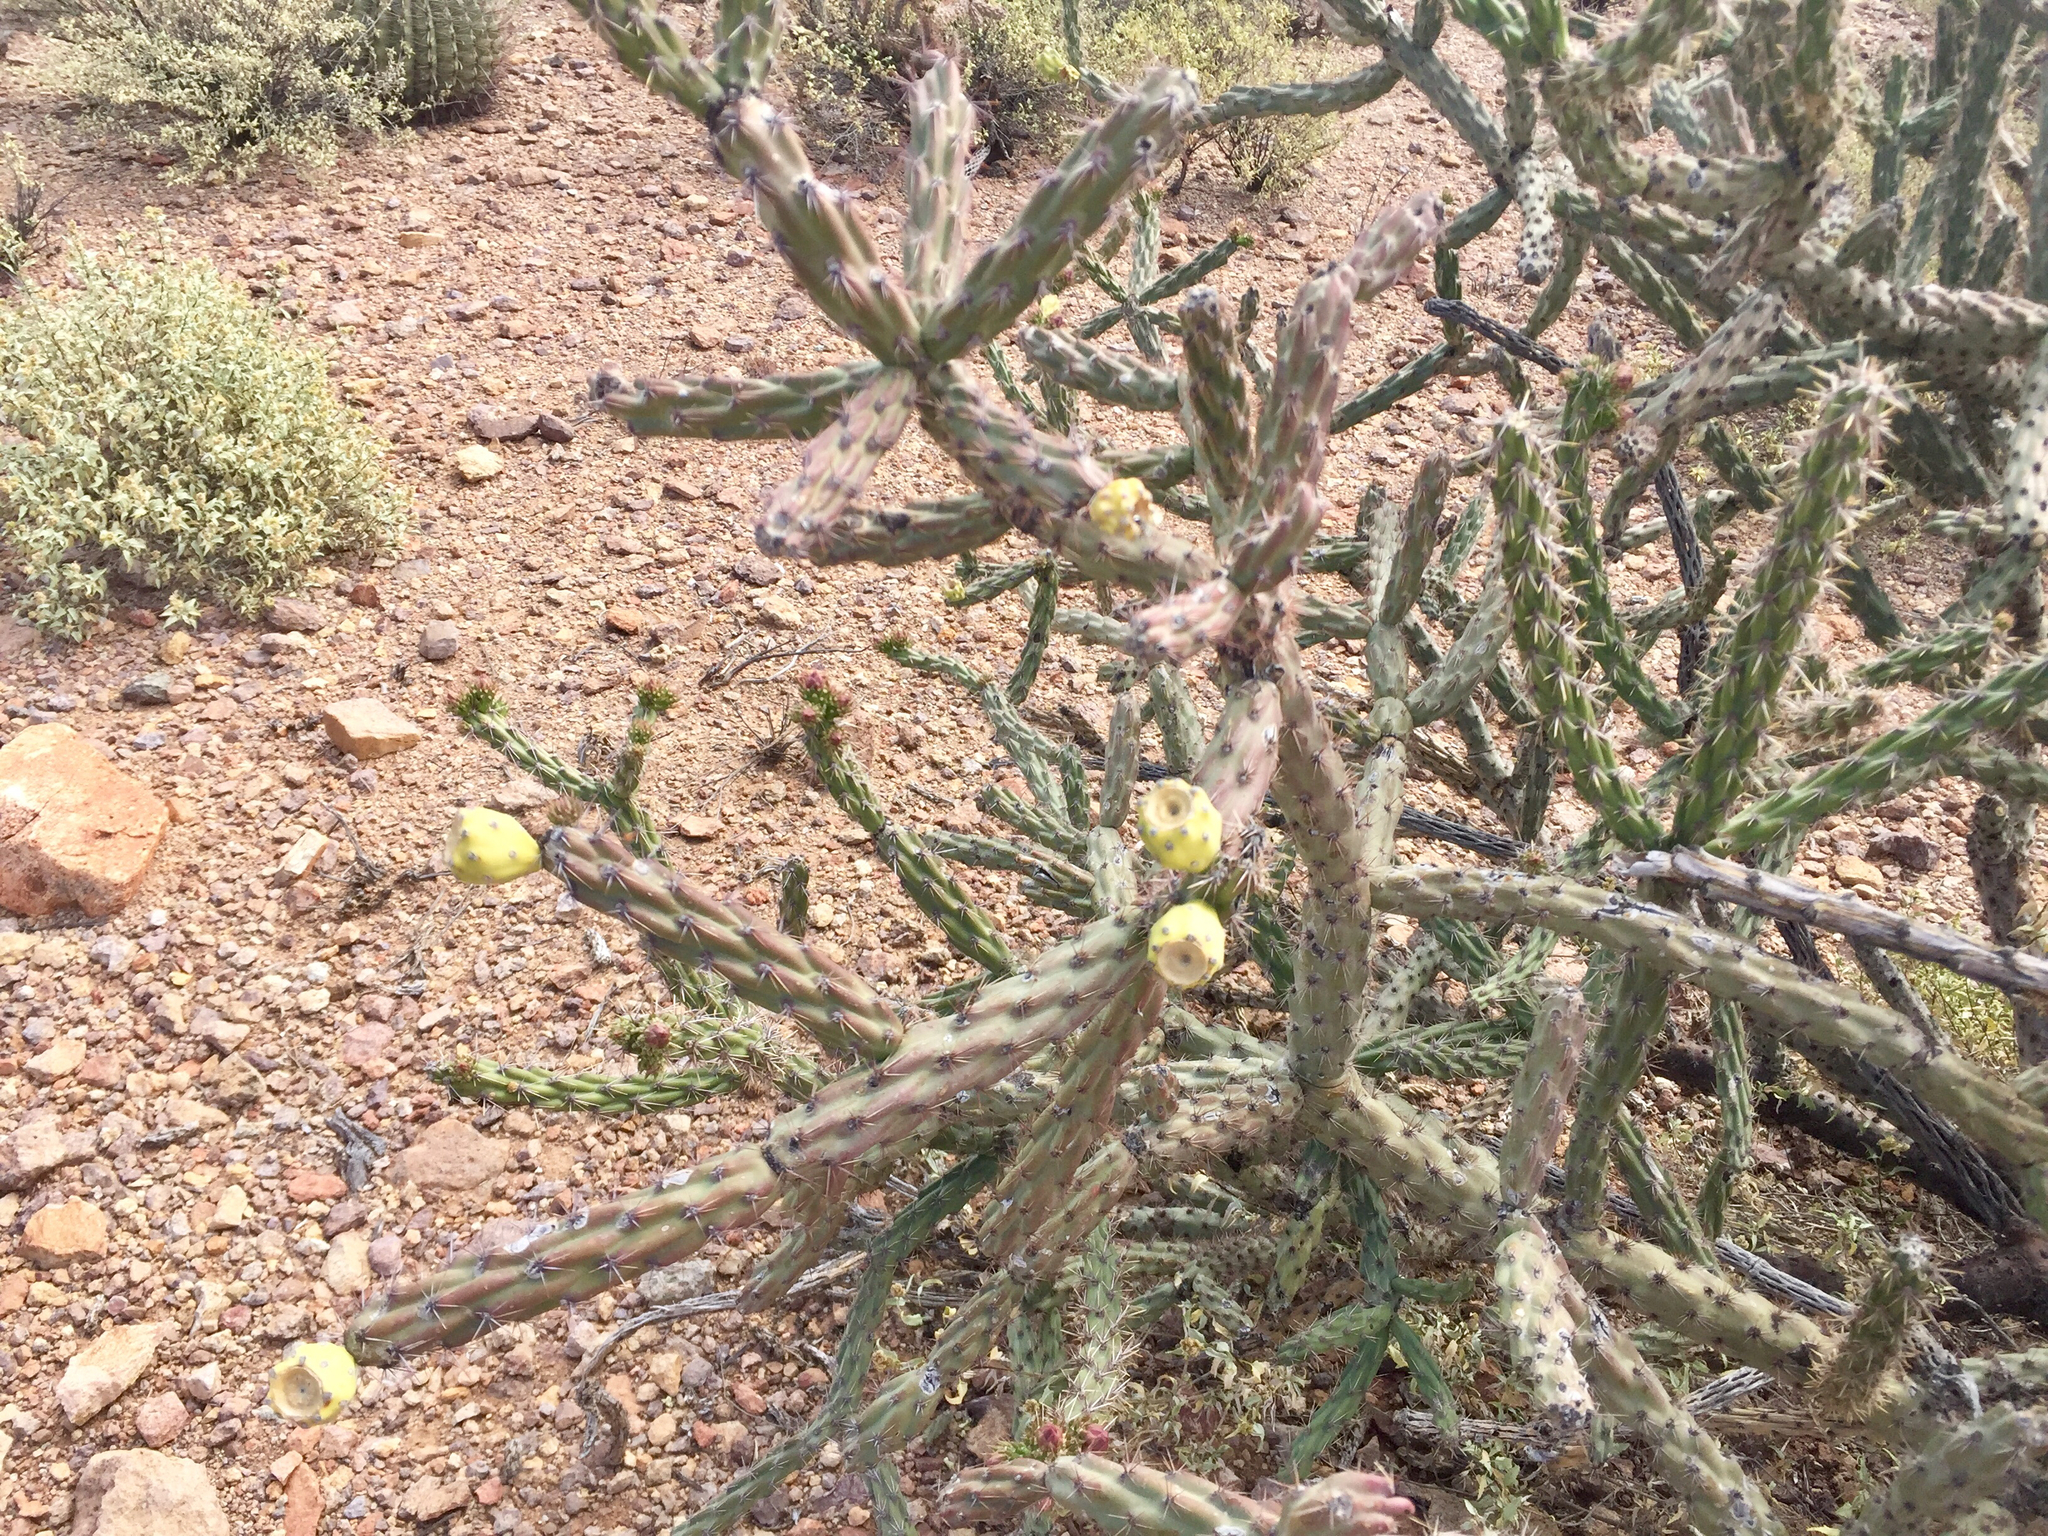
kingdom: Plantae
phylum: Tracheophyta
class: Magnoliopsida
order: Caryophyllales
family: Cactaceae
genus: Cylindropuntia
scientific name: Cylindropuntia thurberi
